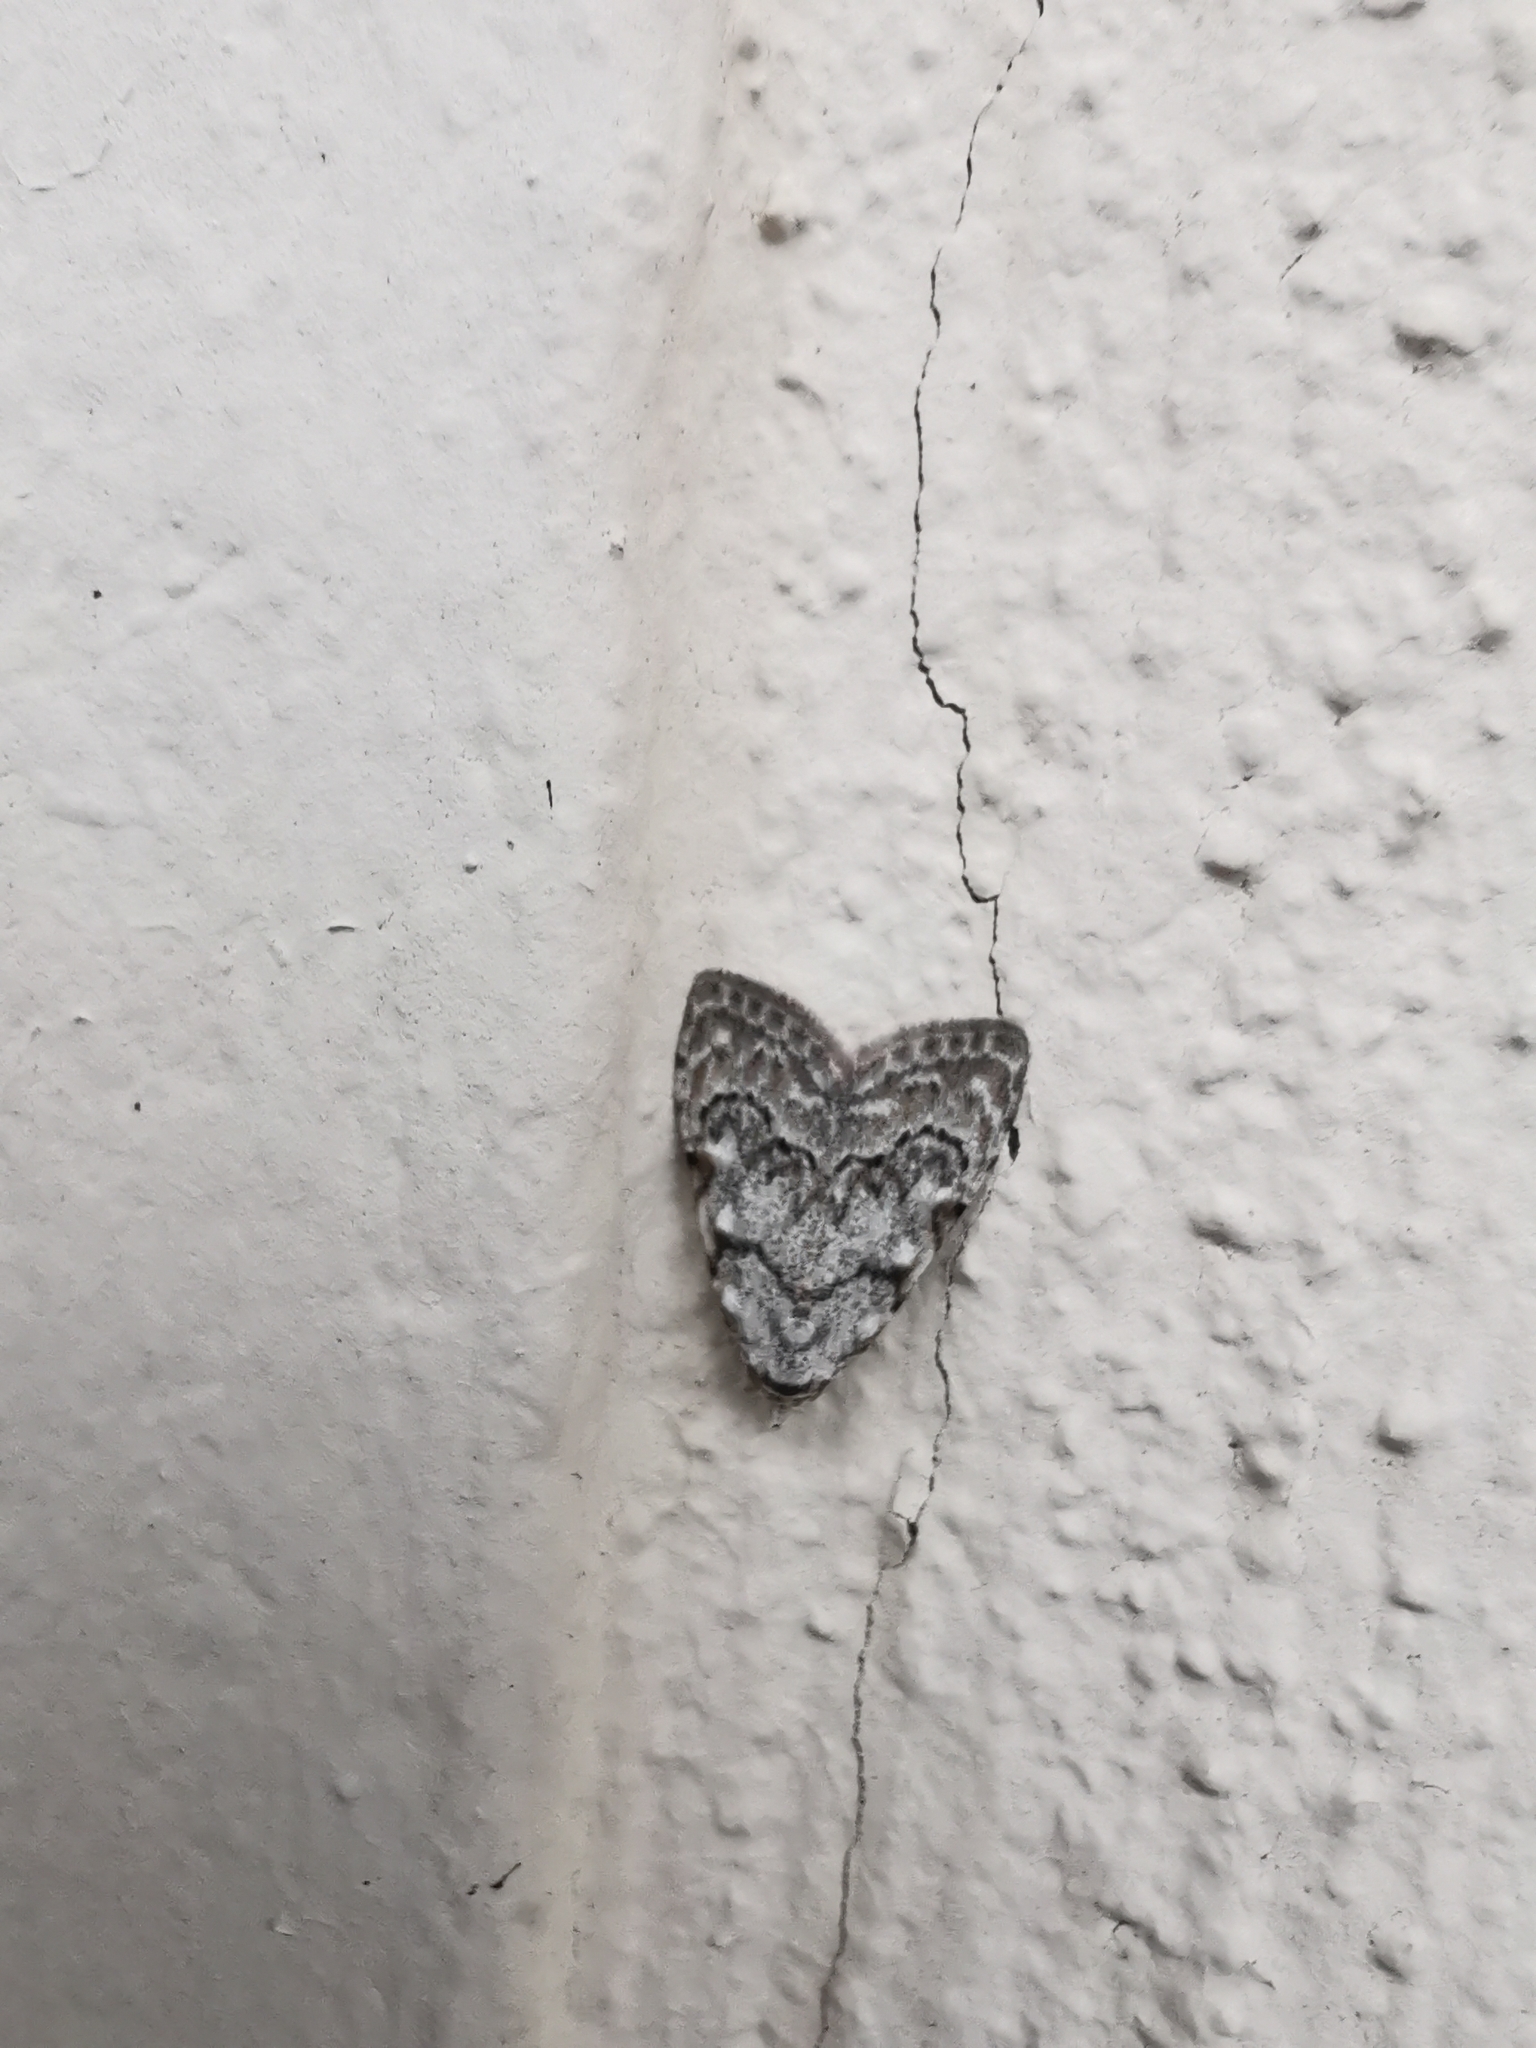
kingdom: Animalia
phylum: Arthropoda
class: Insecta
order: Lepidoptera
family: Nolidae
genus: Nola
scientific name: Nola confusalis
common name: Least black arches
